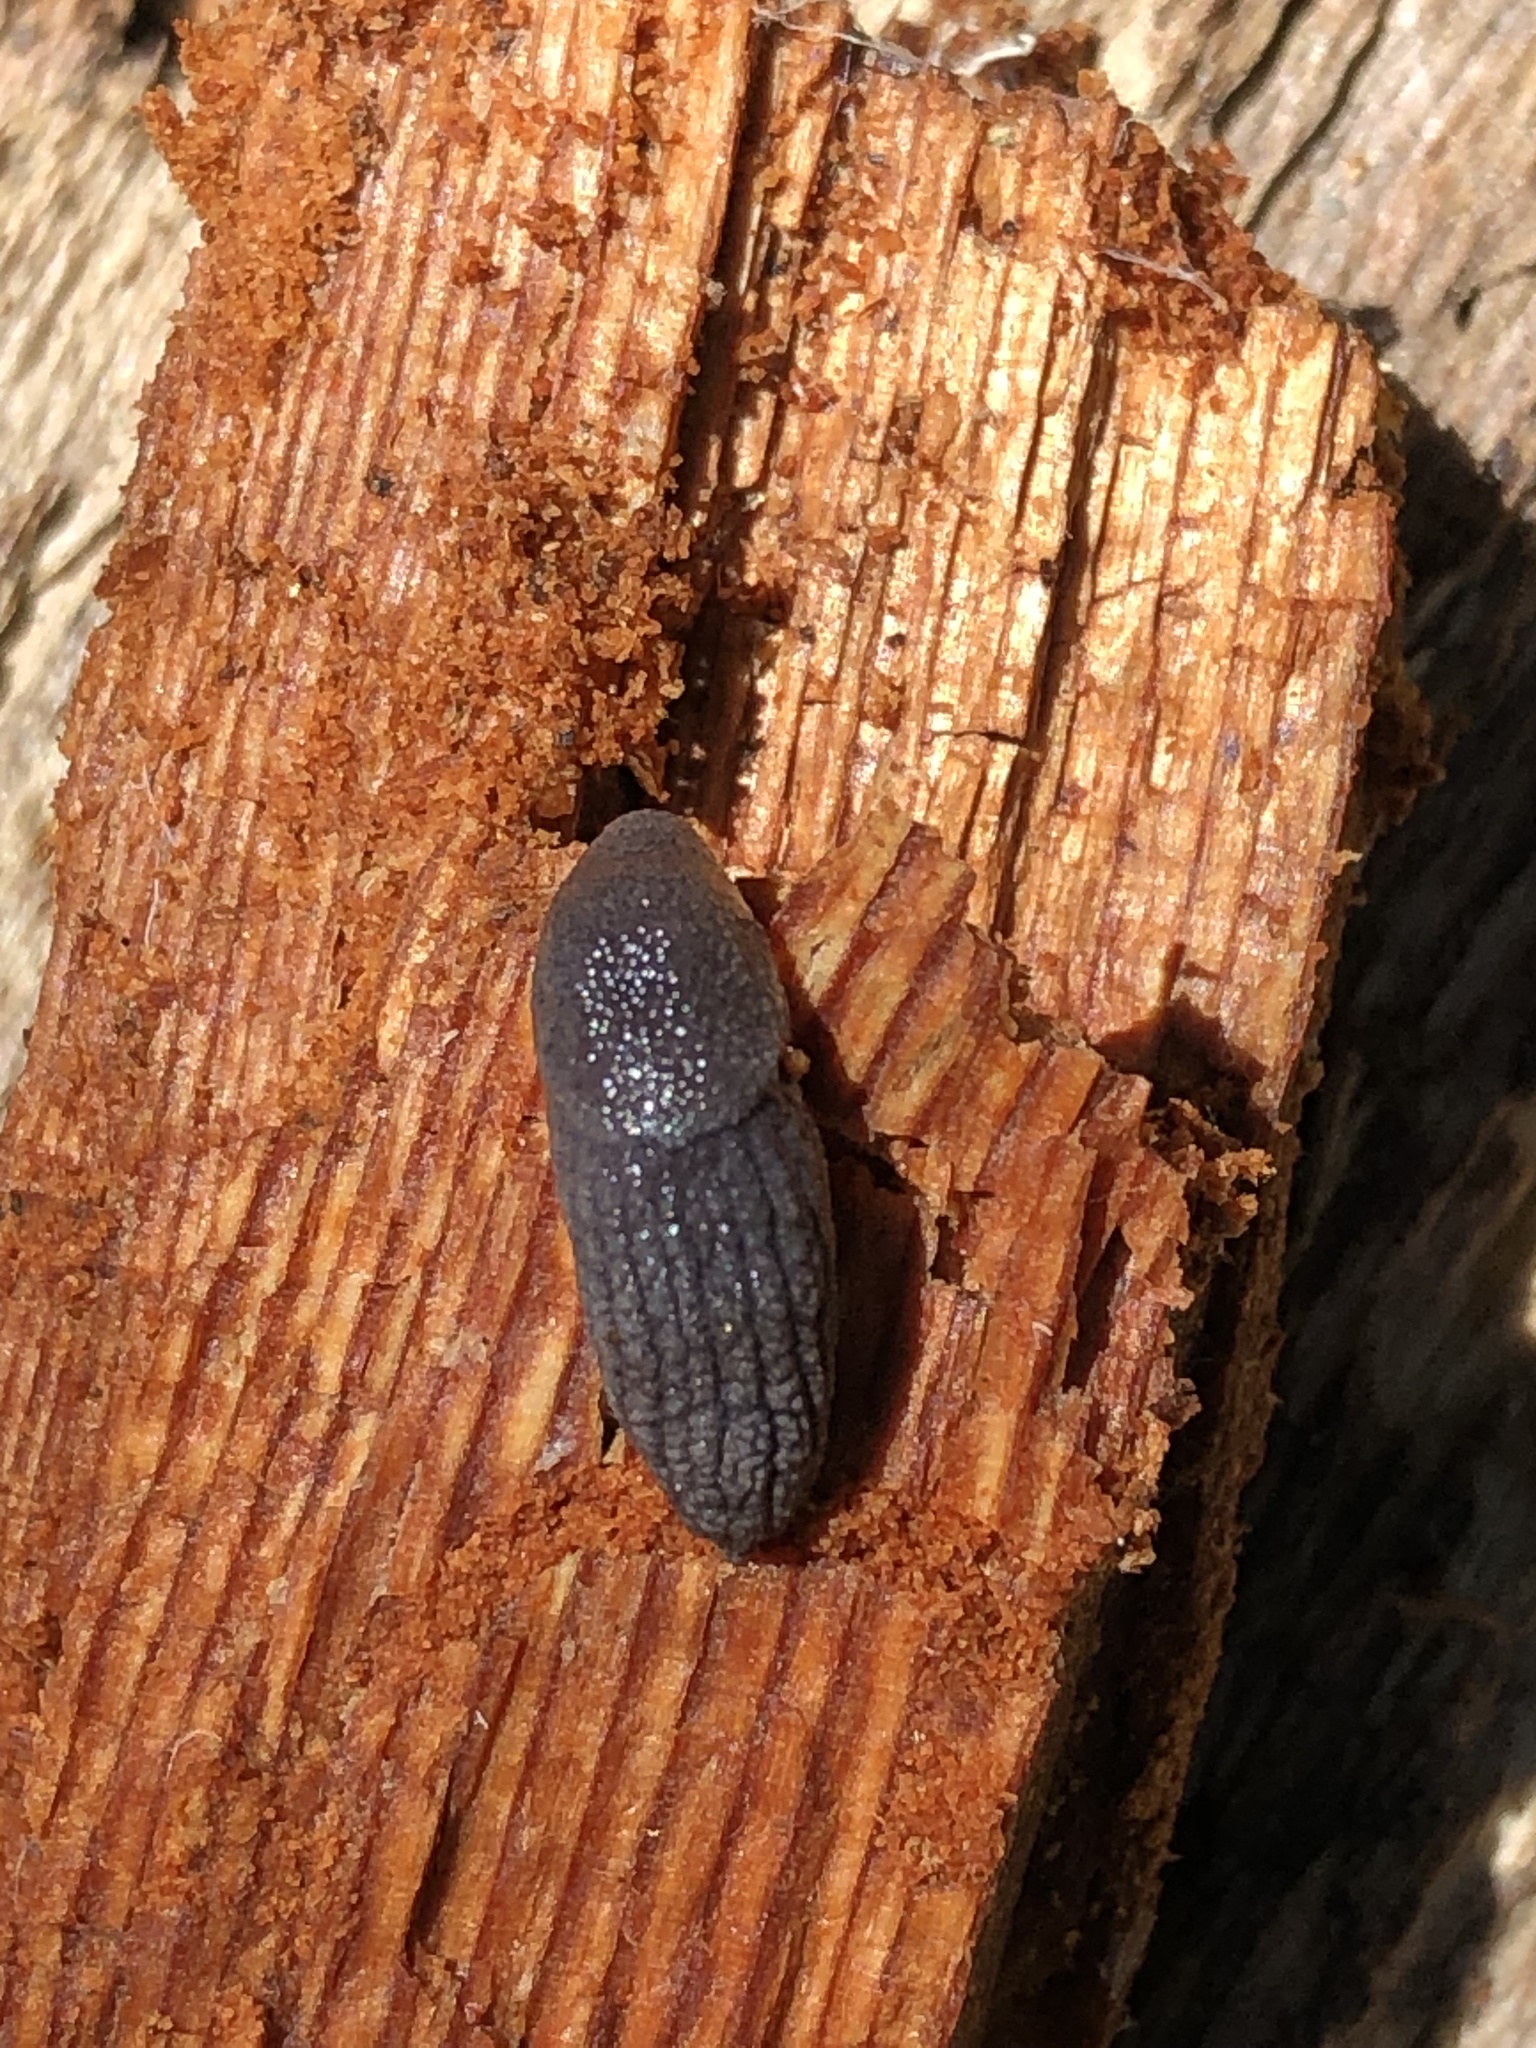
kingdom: Animalia
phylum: Mollusca
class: Gastropoda
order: Stylommatophora
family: Ariolimacidae
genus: Prophysaon
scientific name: Prophysaon coeruleum
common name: Blue-gray taildropper
